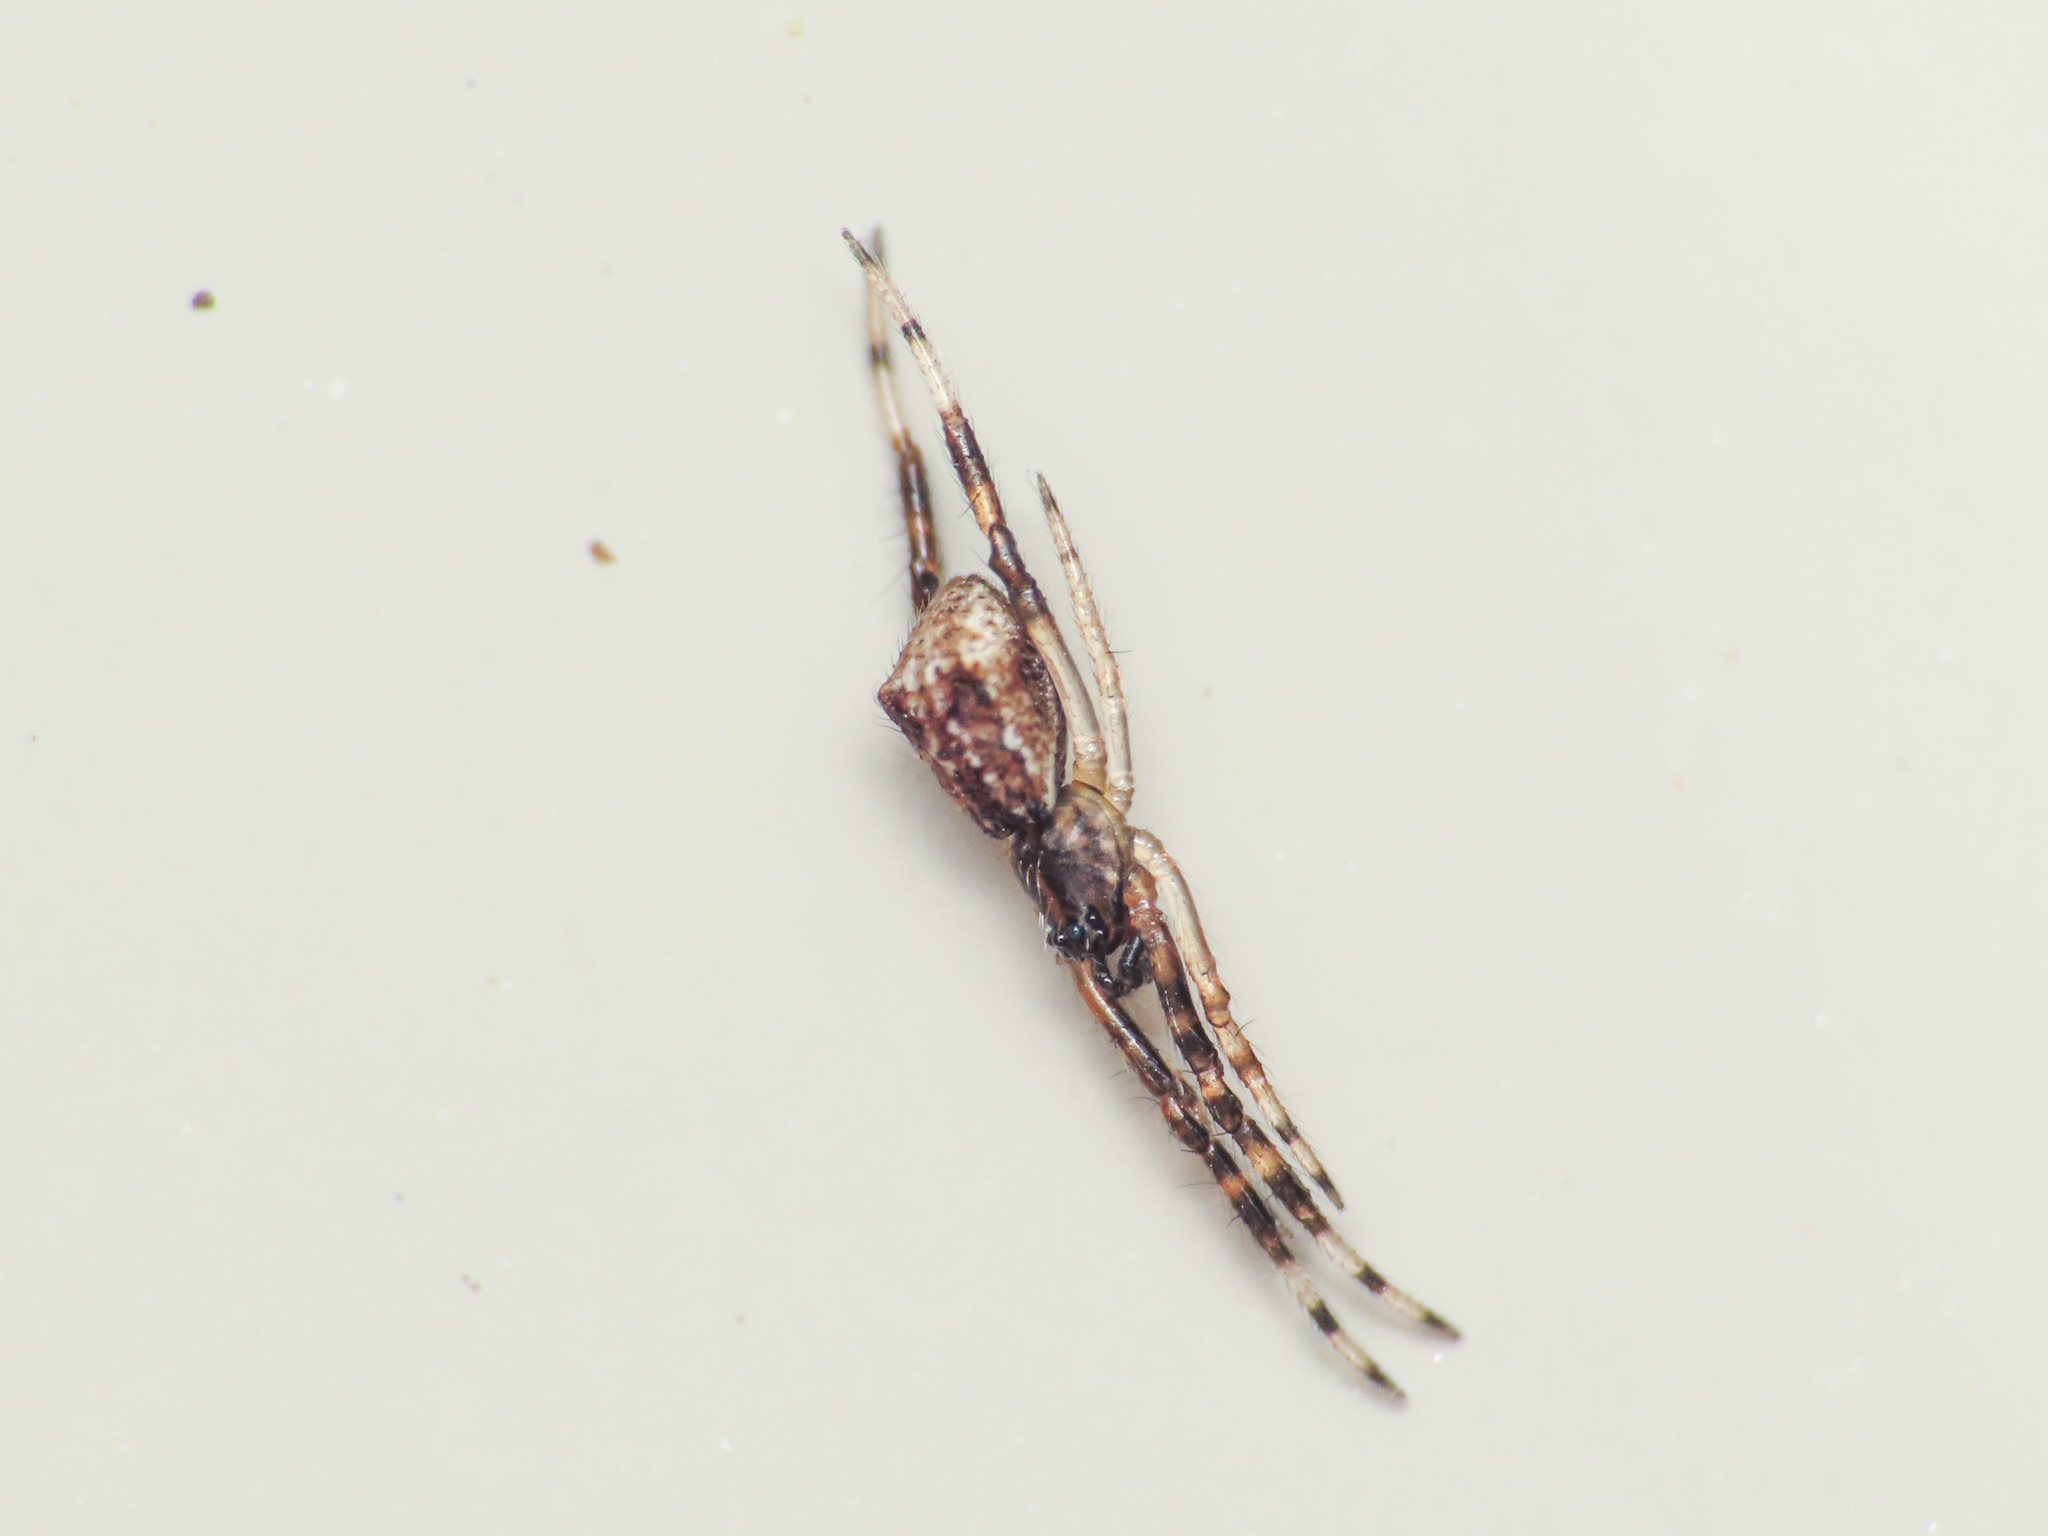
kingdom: Animalia
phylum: Arthropoda
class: Arachnida
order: Araneae
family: Theridiidae
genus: Episinus
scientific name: Episinus angulatus
